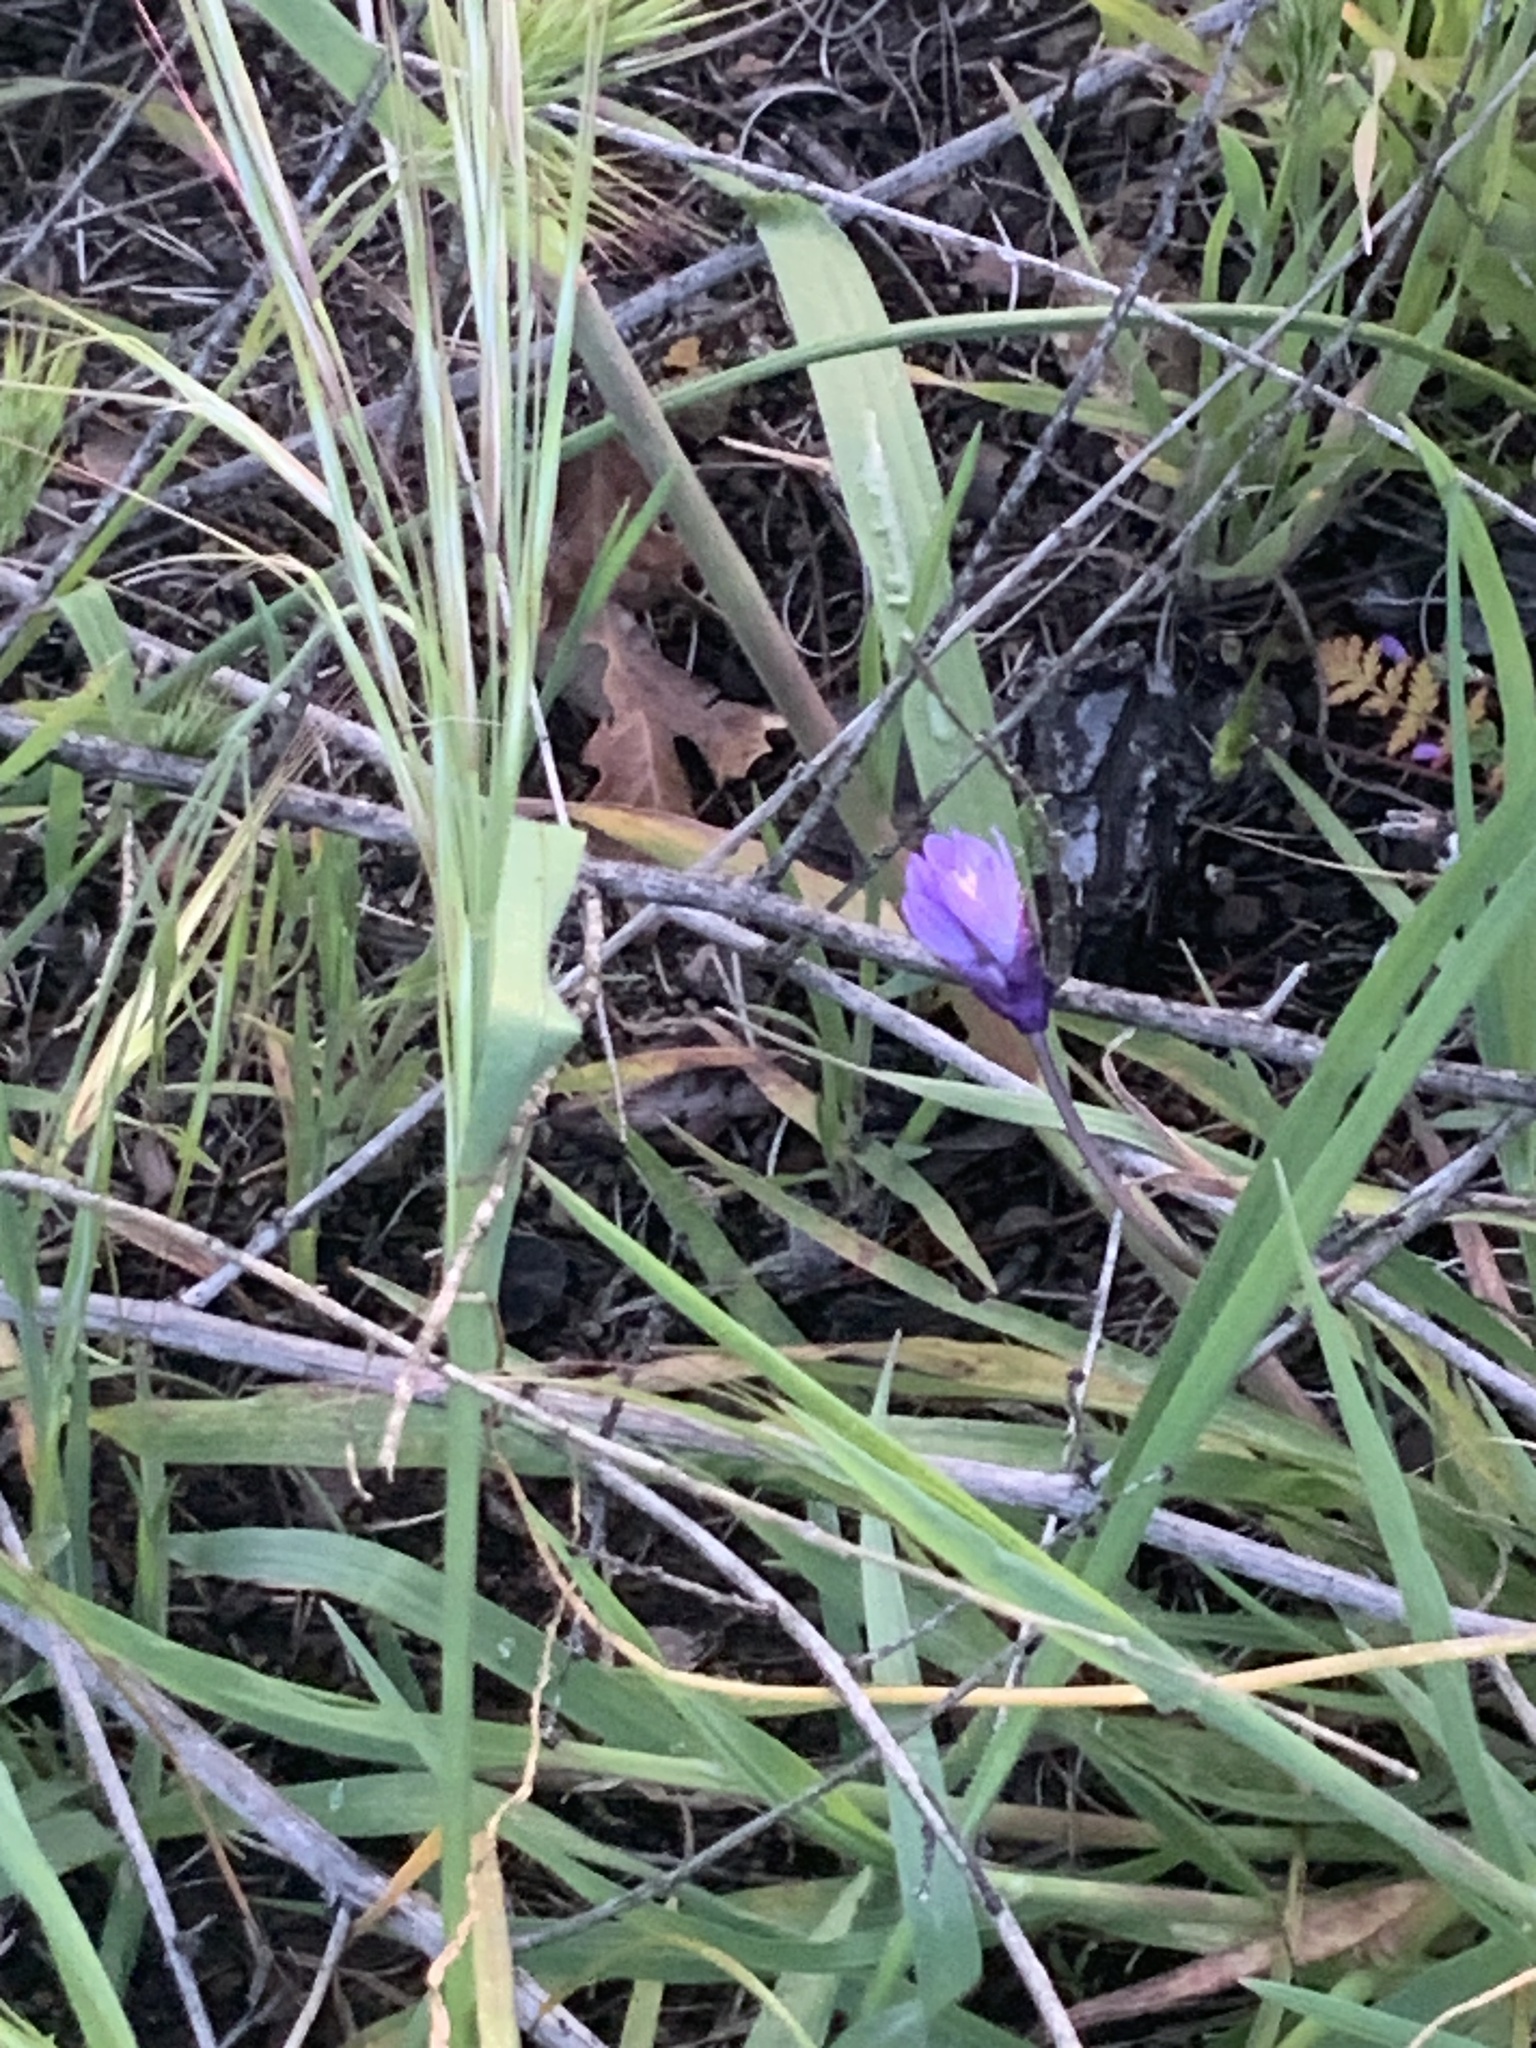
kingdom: Plantae
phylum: Tracheophyta
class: Liliopsida
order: Asparagales
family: Asparagaceae
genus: Dipterostemon
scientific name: Dipterostemon capitatus
